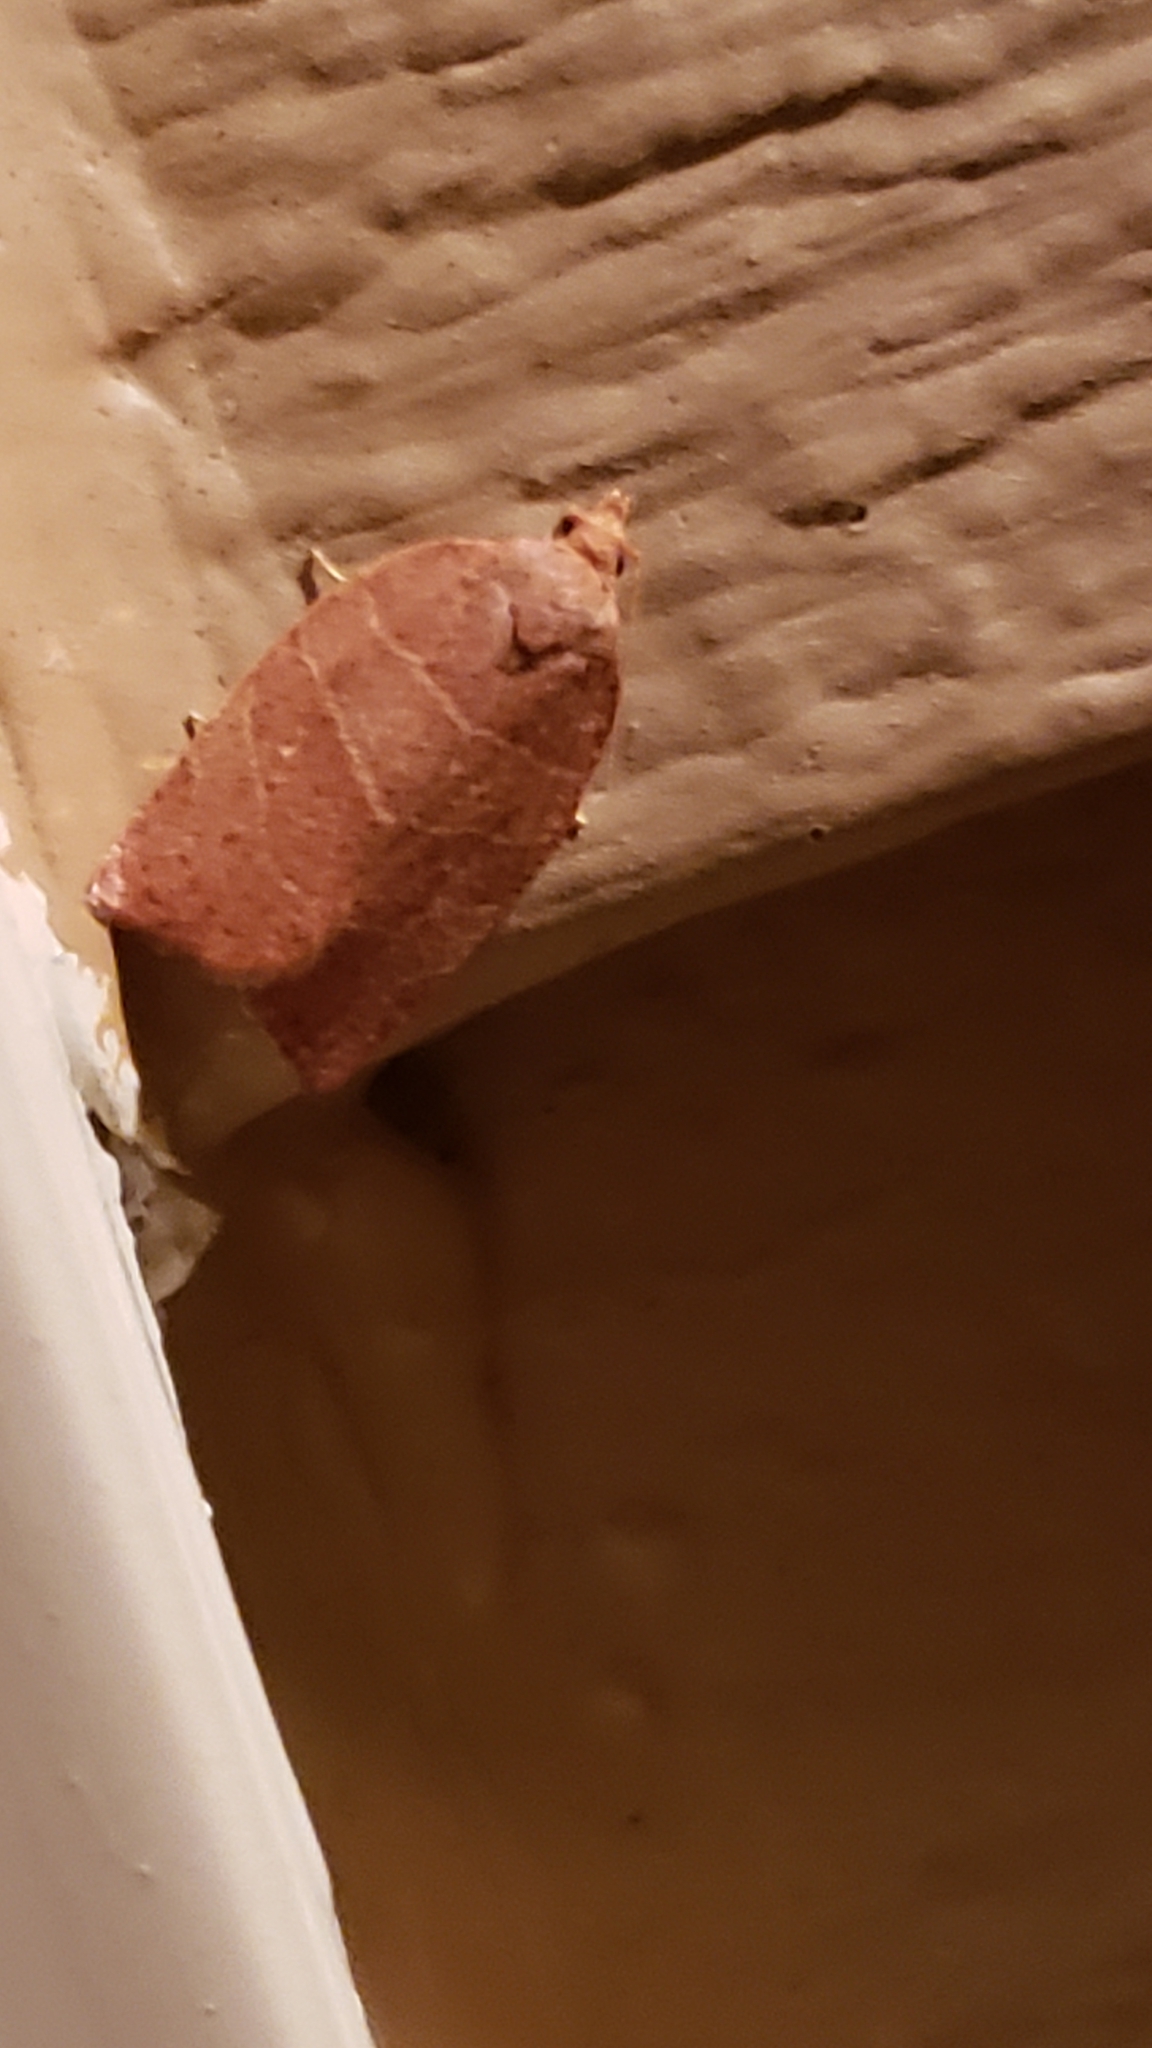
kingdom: Animalia
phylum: Arthropoda
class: Insecta
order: Lepidoptera
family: Tortricidae
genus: Pandemis
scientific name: Pandemis limitata
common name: Three-lined leafroller moth
